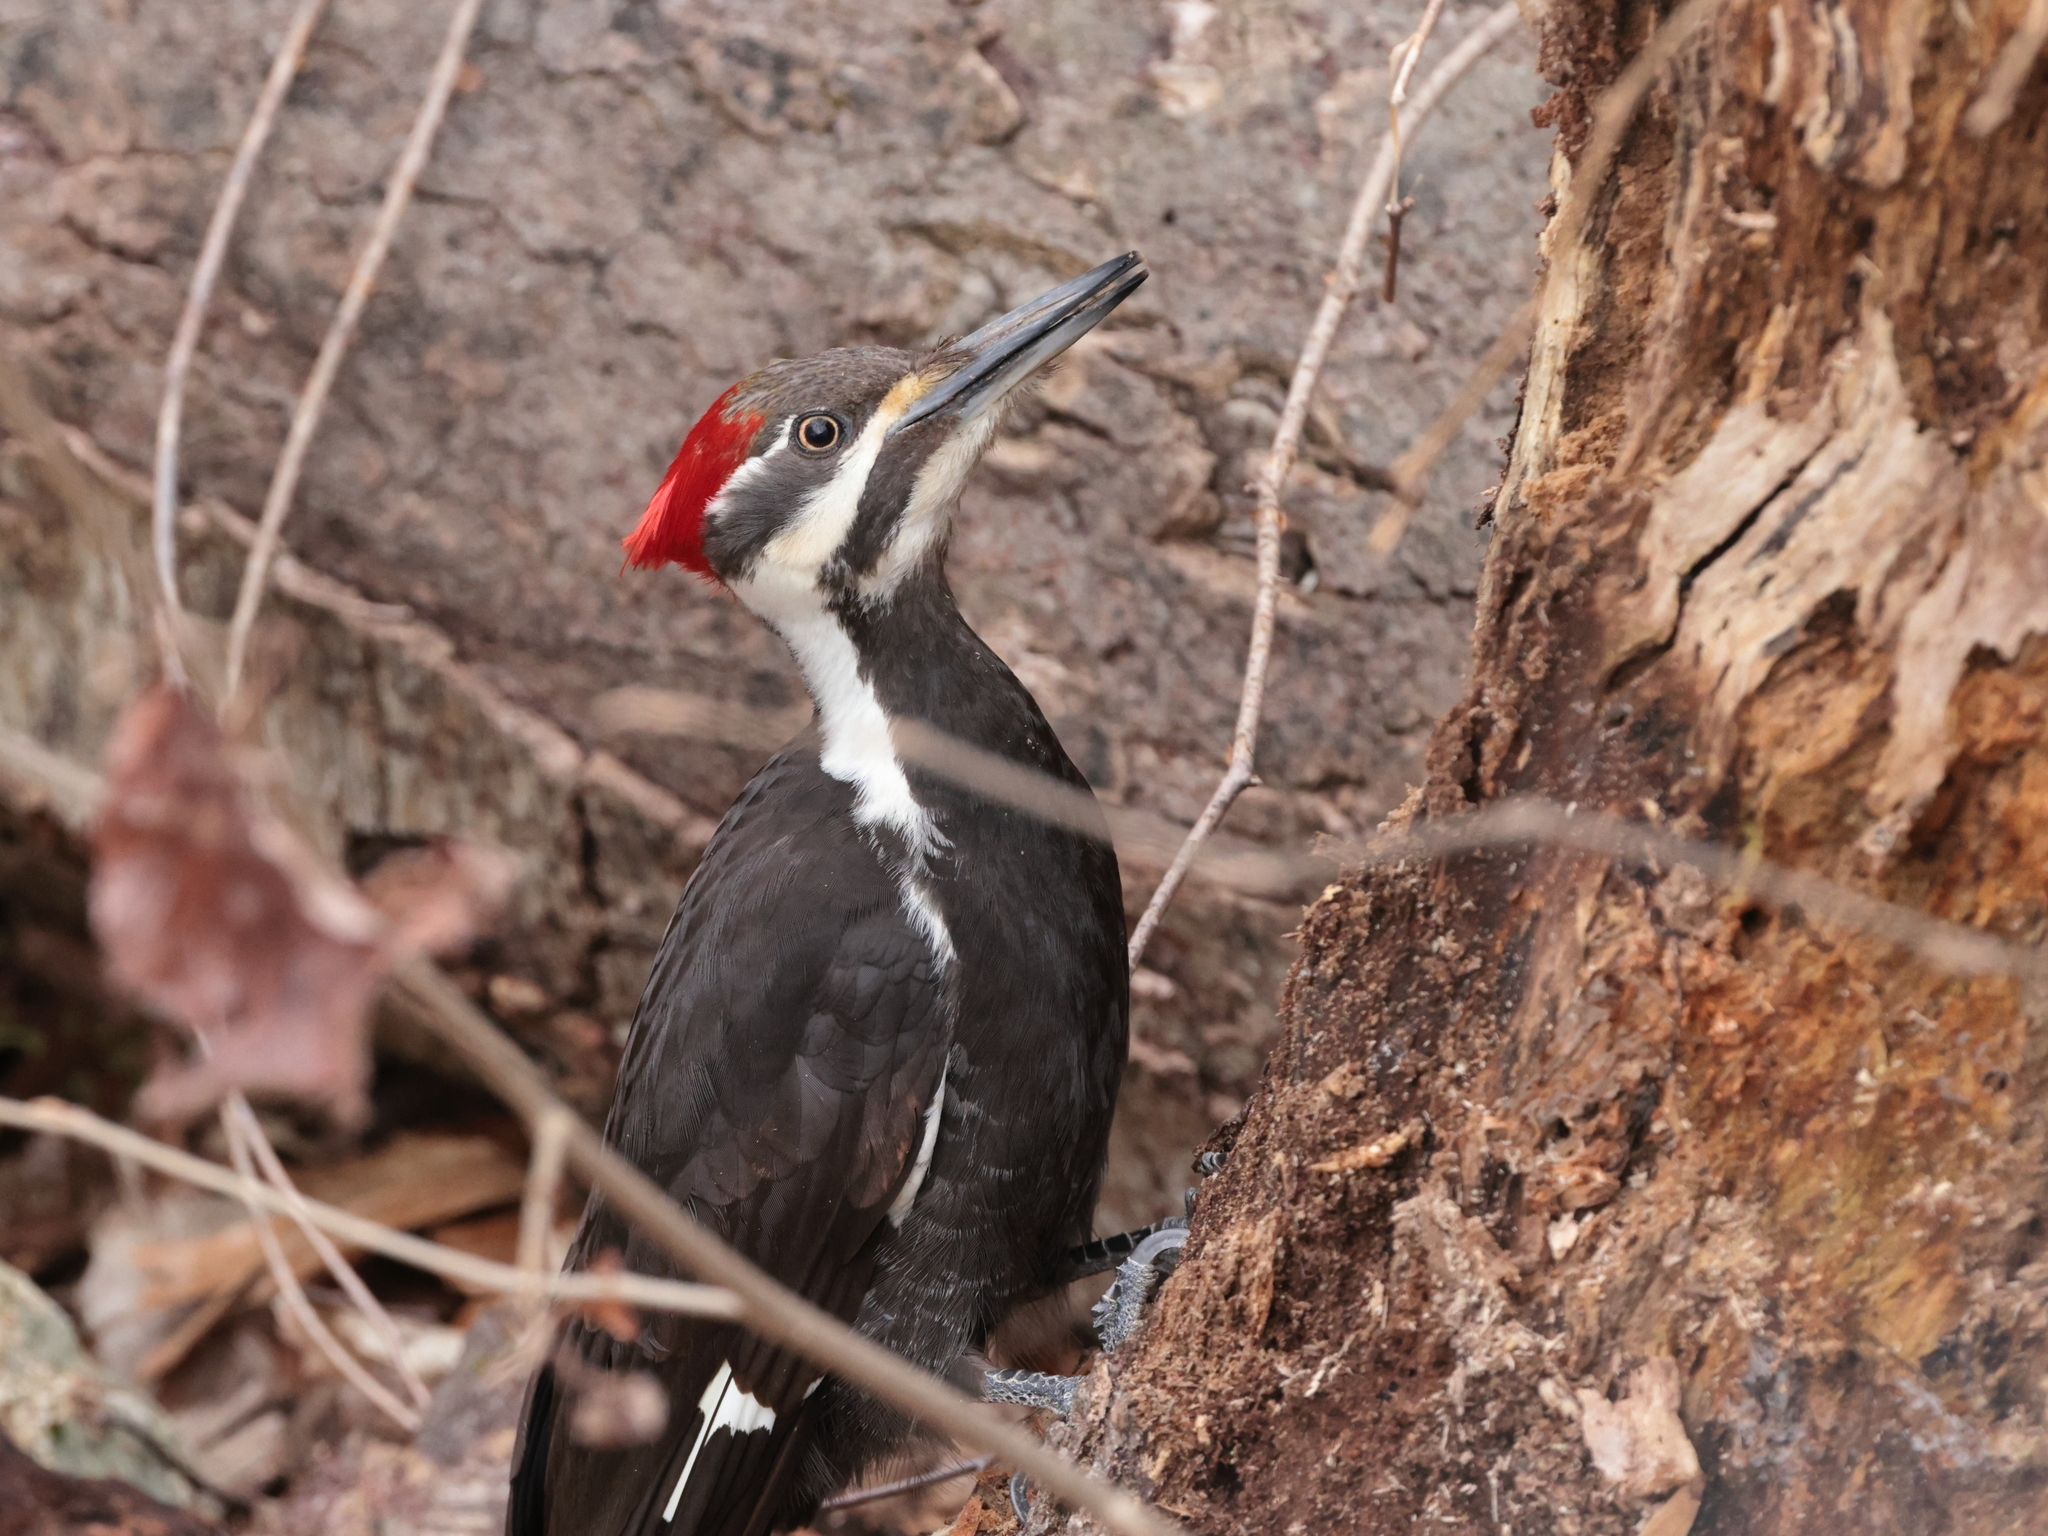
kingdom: Animalia
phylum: Chordata
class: Aves
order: Piciformes
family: Picidae
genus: Dryocopus
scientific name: Dryocopus pileatus
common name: Pileated woodpecker
